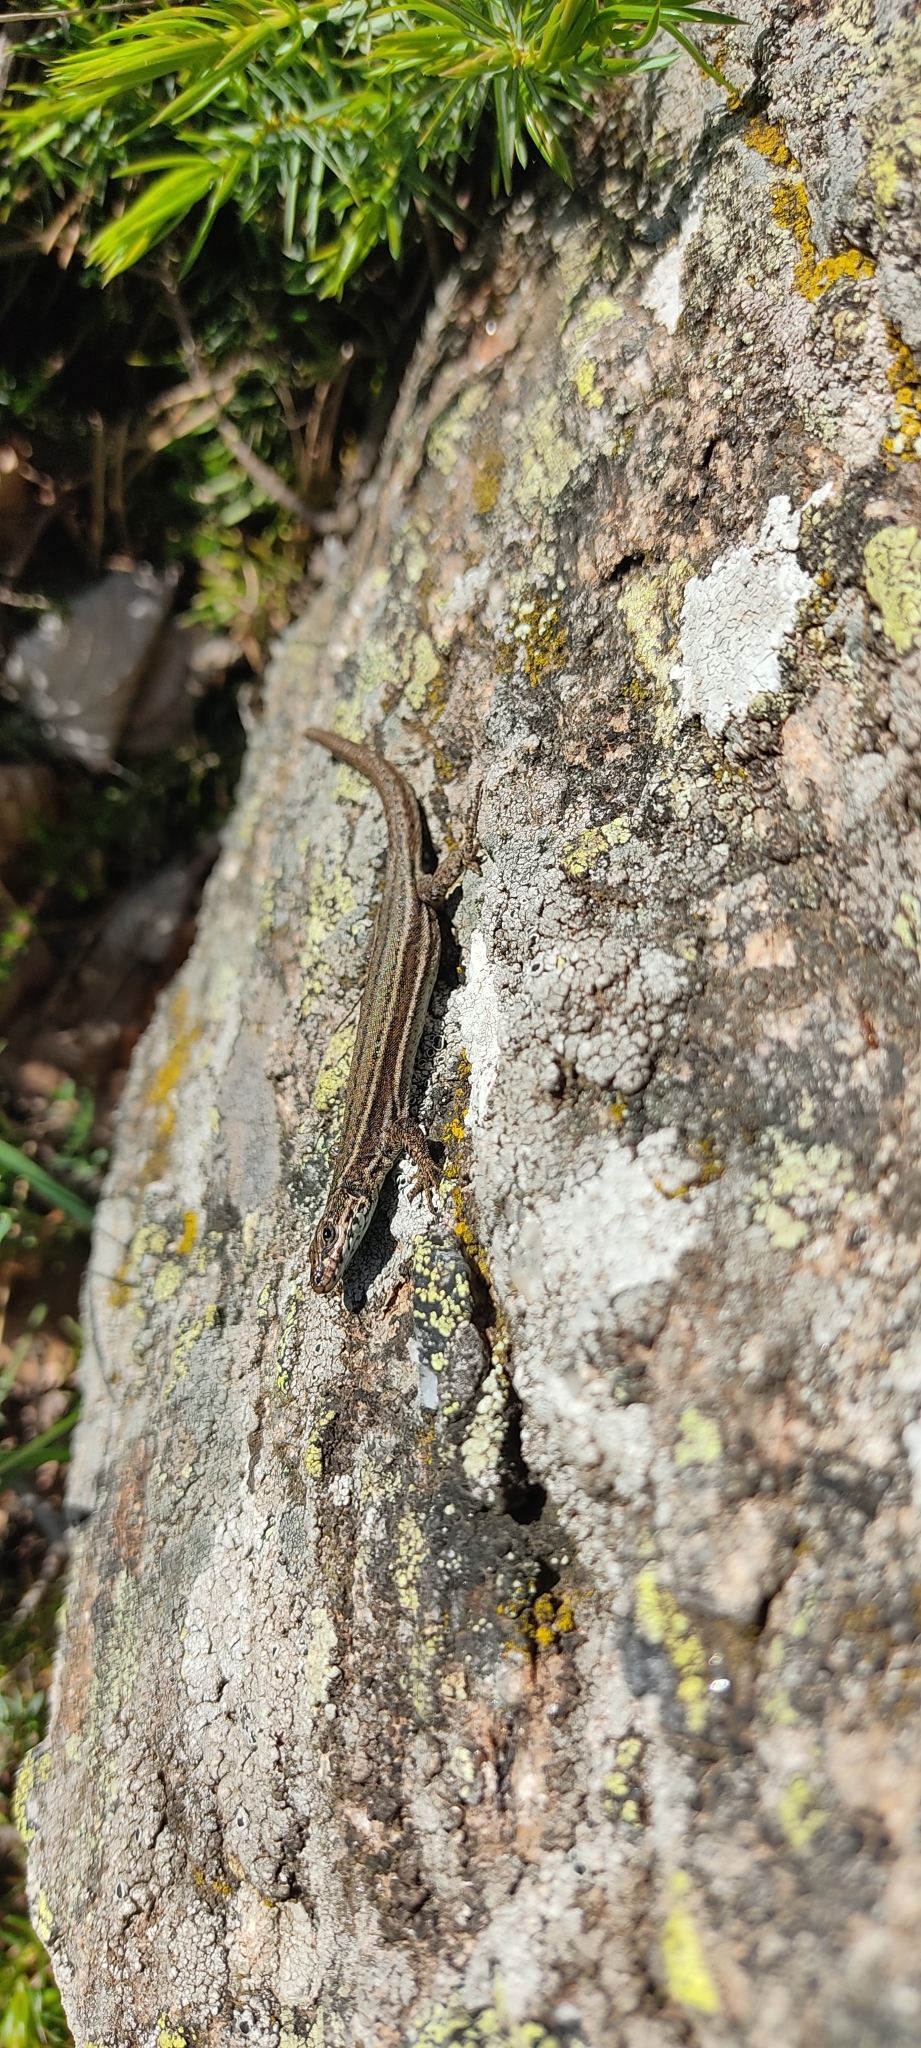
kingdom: Animalia
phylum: Chordata
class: Squamata
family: Lacertidae
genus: Podarcis
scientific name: Podarcis liolepis
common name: Catalonian wall lizard
